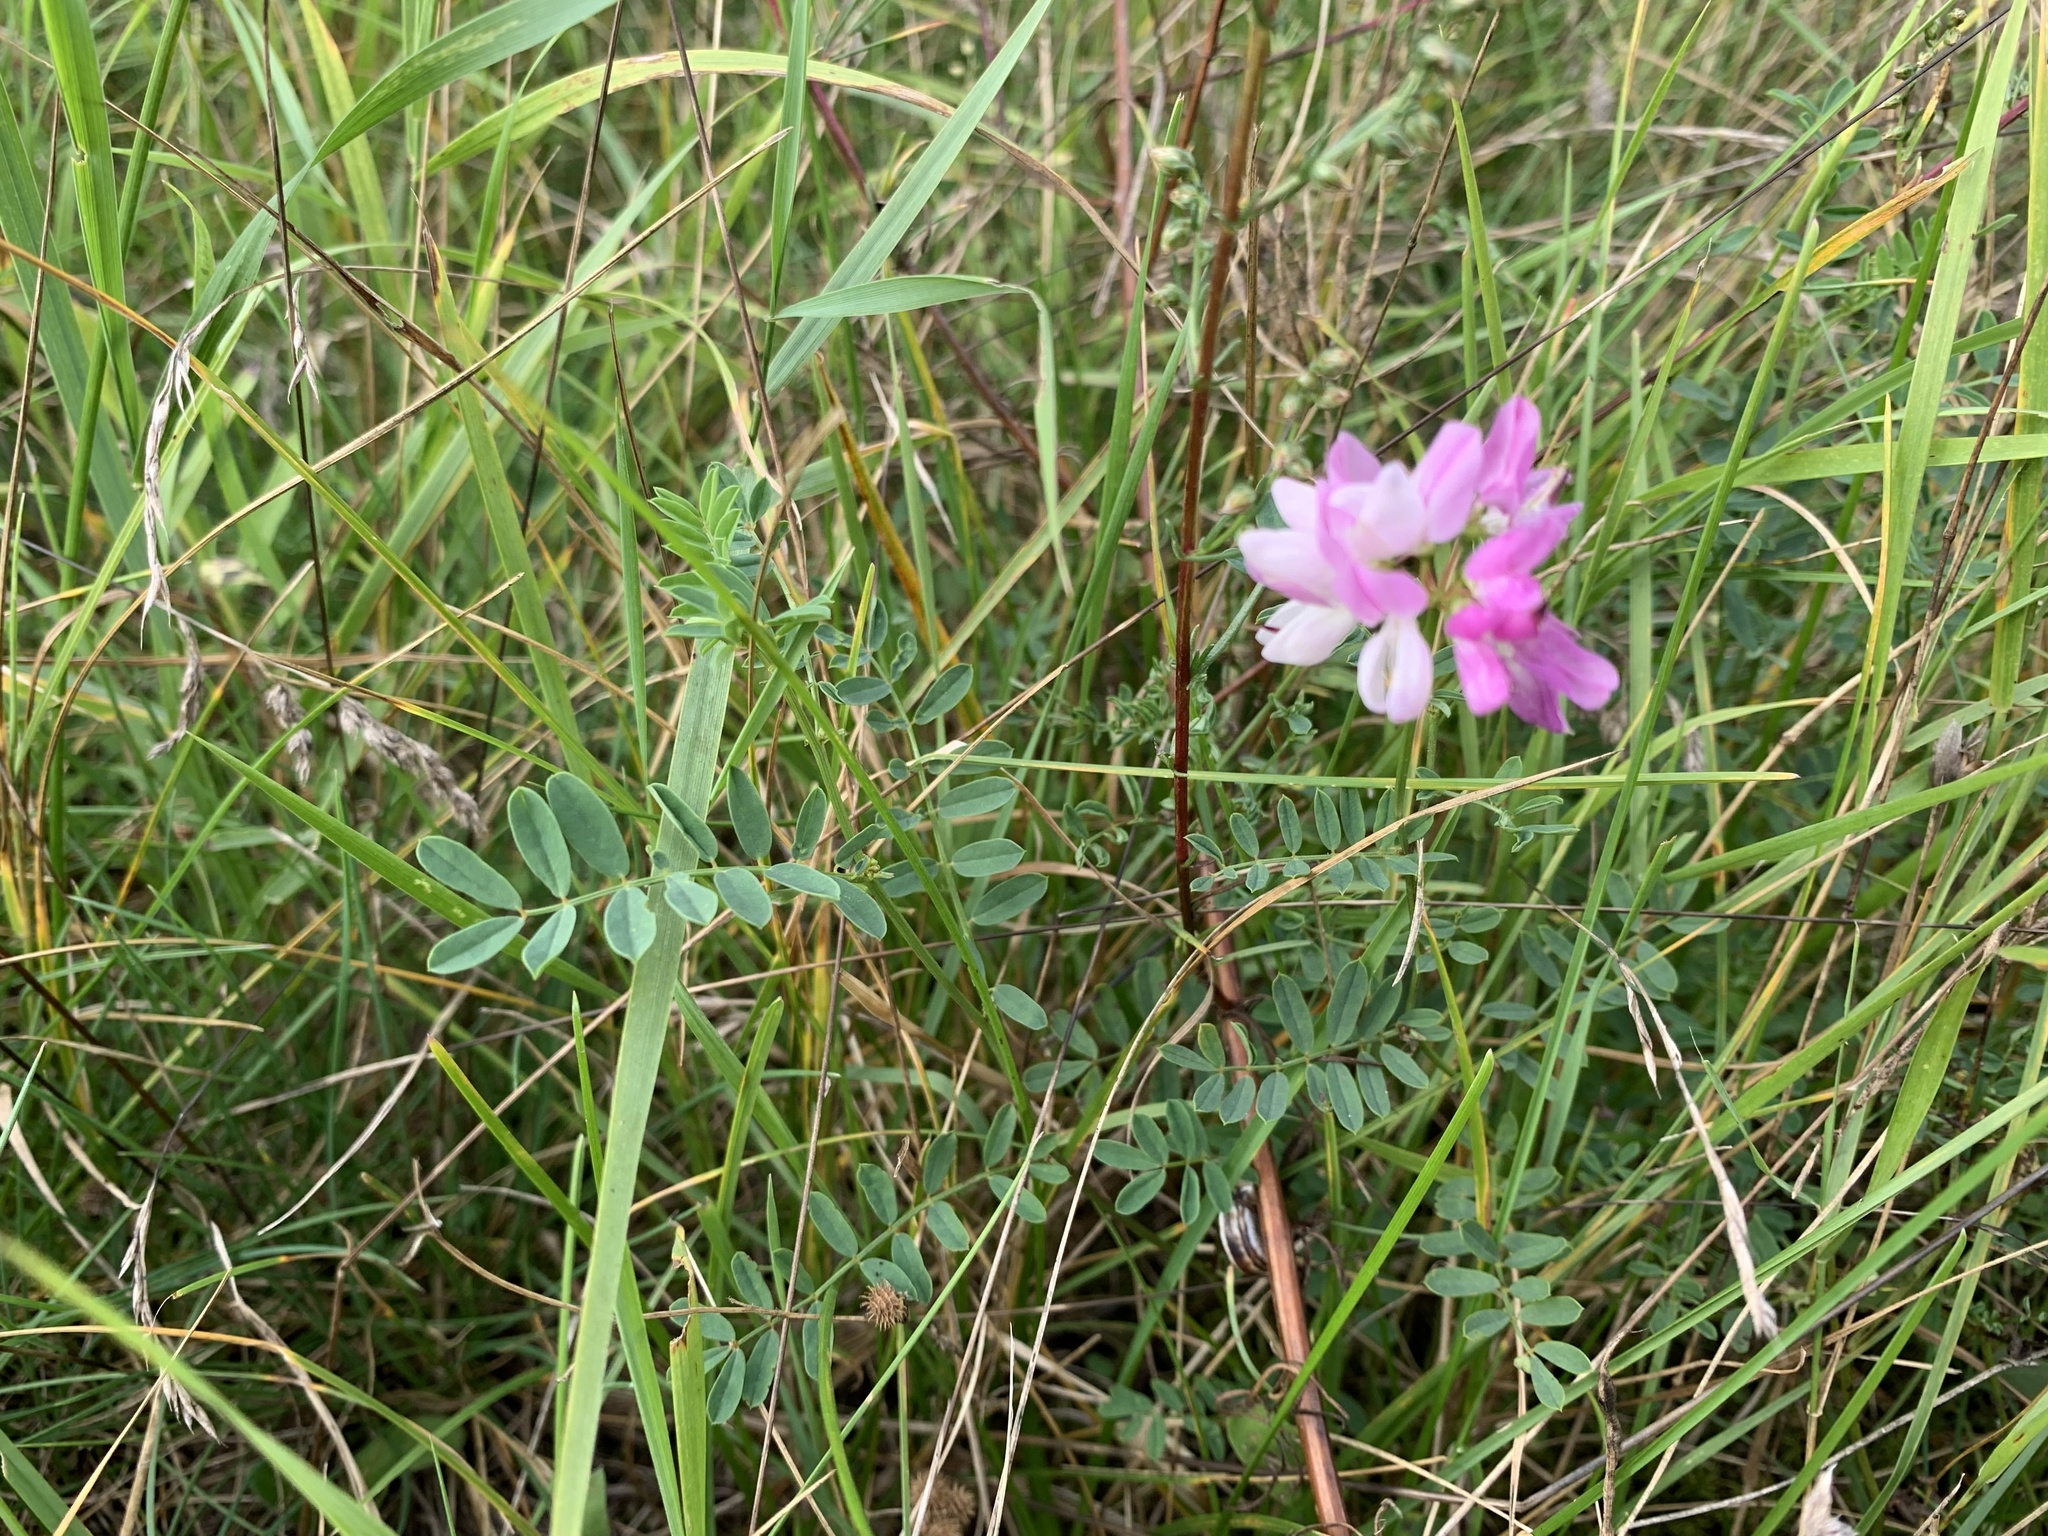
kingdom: Plantae
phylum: Tracheophyta
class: Magnoliopsida
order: Fabales
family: Fabaceae
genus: Coronilla
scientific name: Coronilla varia
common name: Crownvetch
